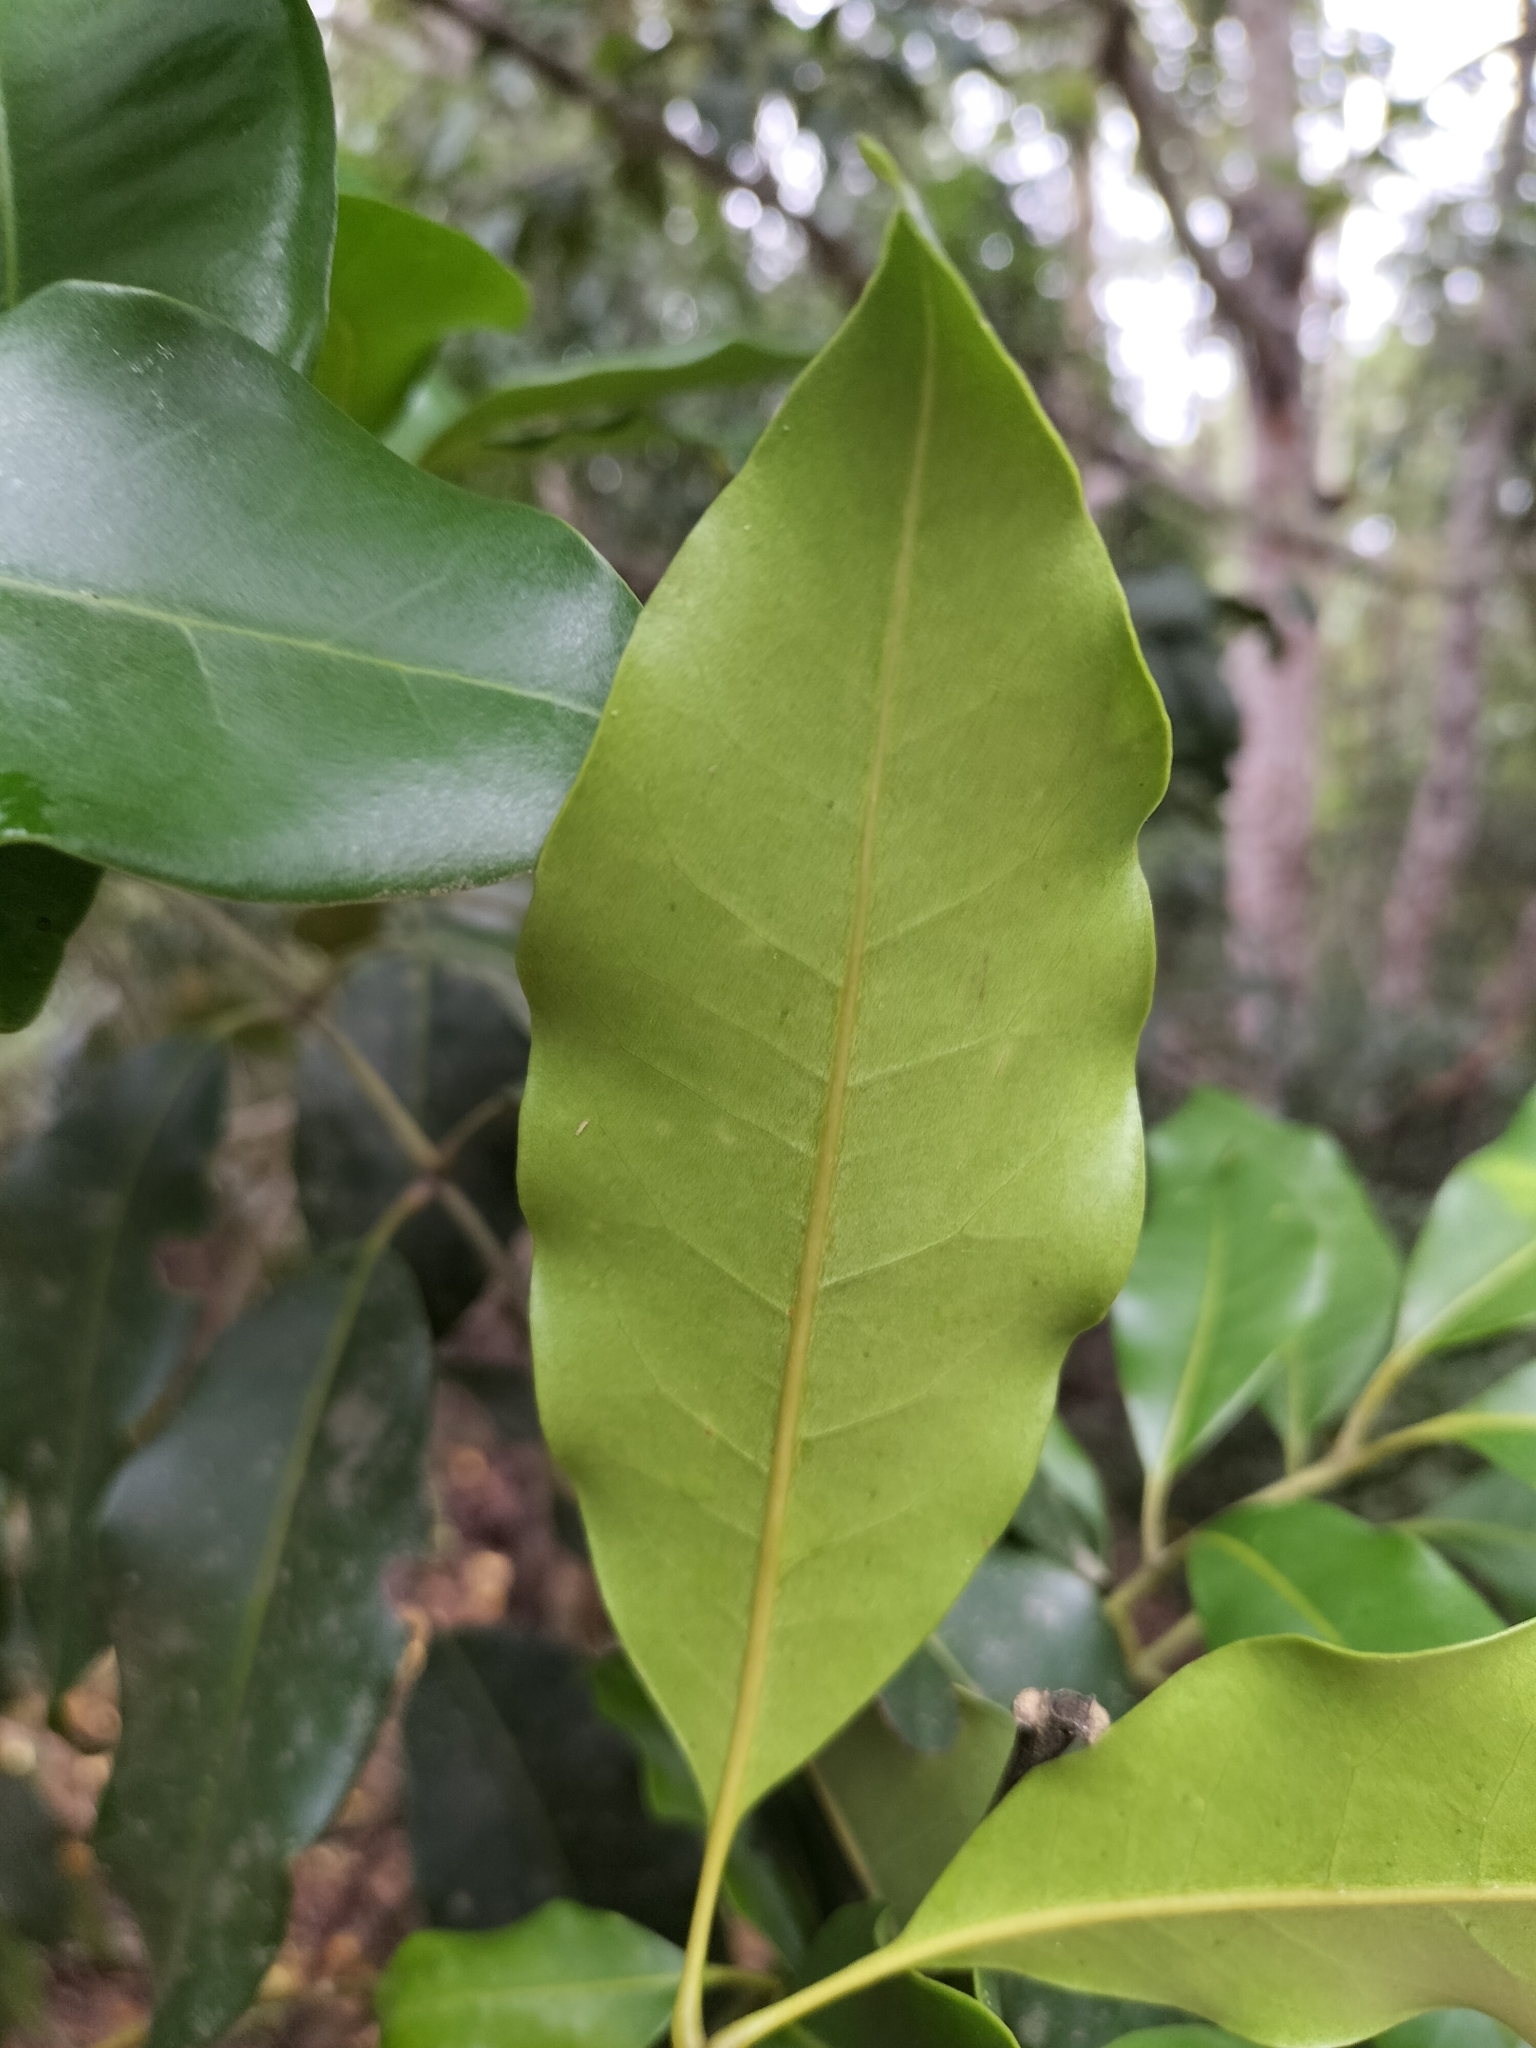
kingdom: Plantae
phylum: Tracheophyta
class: Magnoliopsida
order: Sapindales
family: Rutaceae
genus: Flindersia
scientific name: Flindersia brayleyana
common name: Queensland maple
